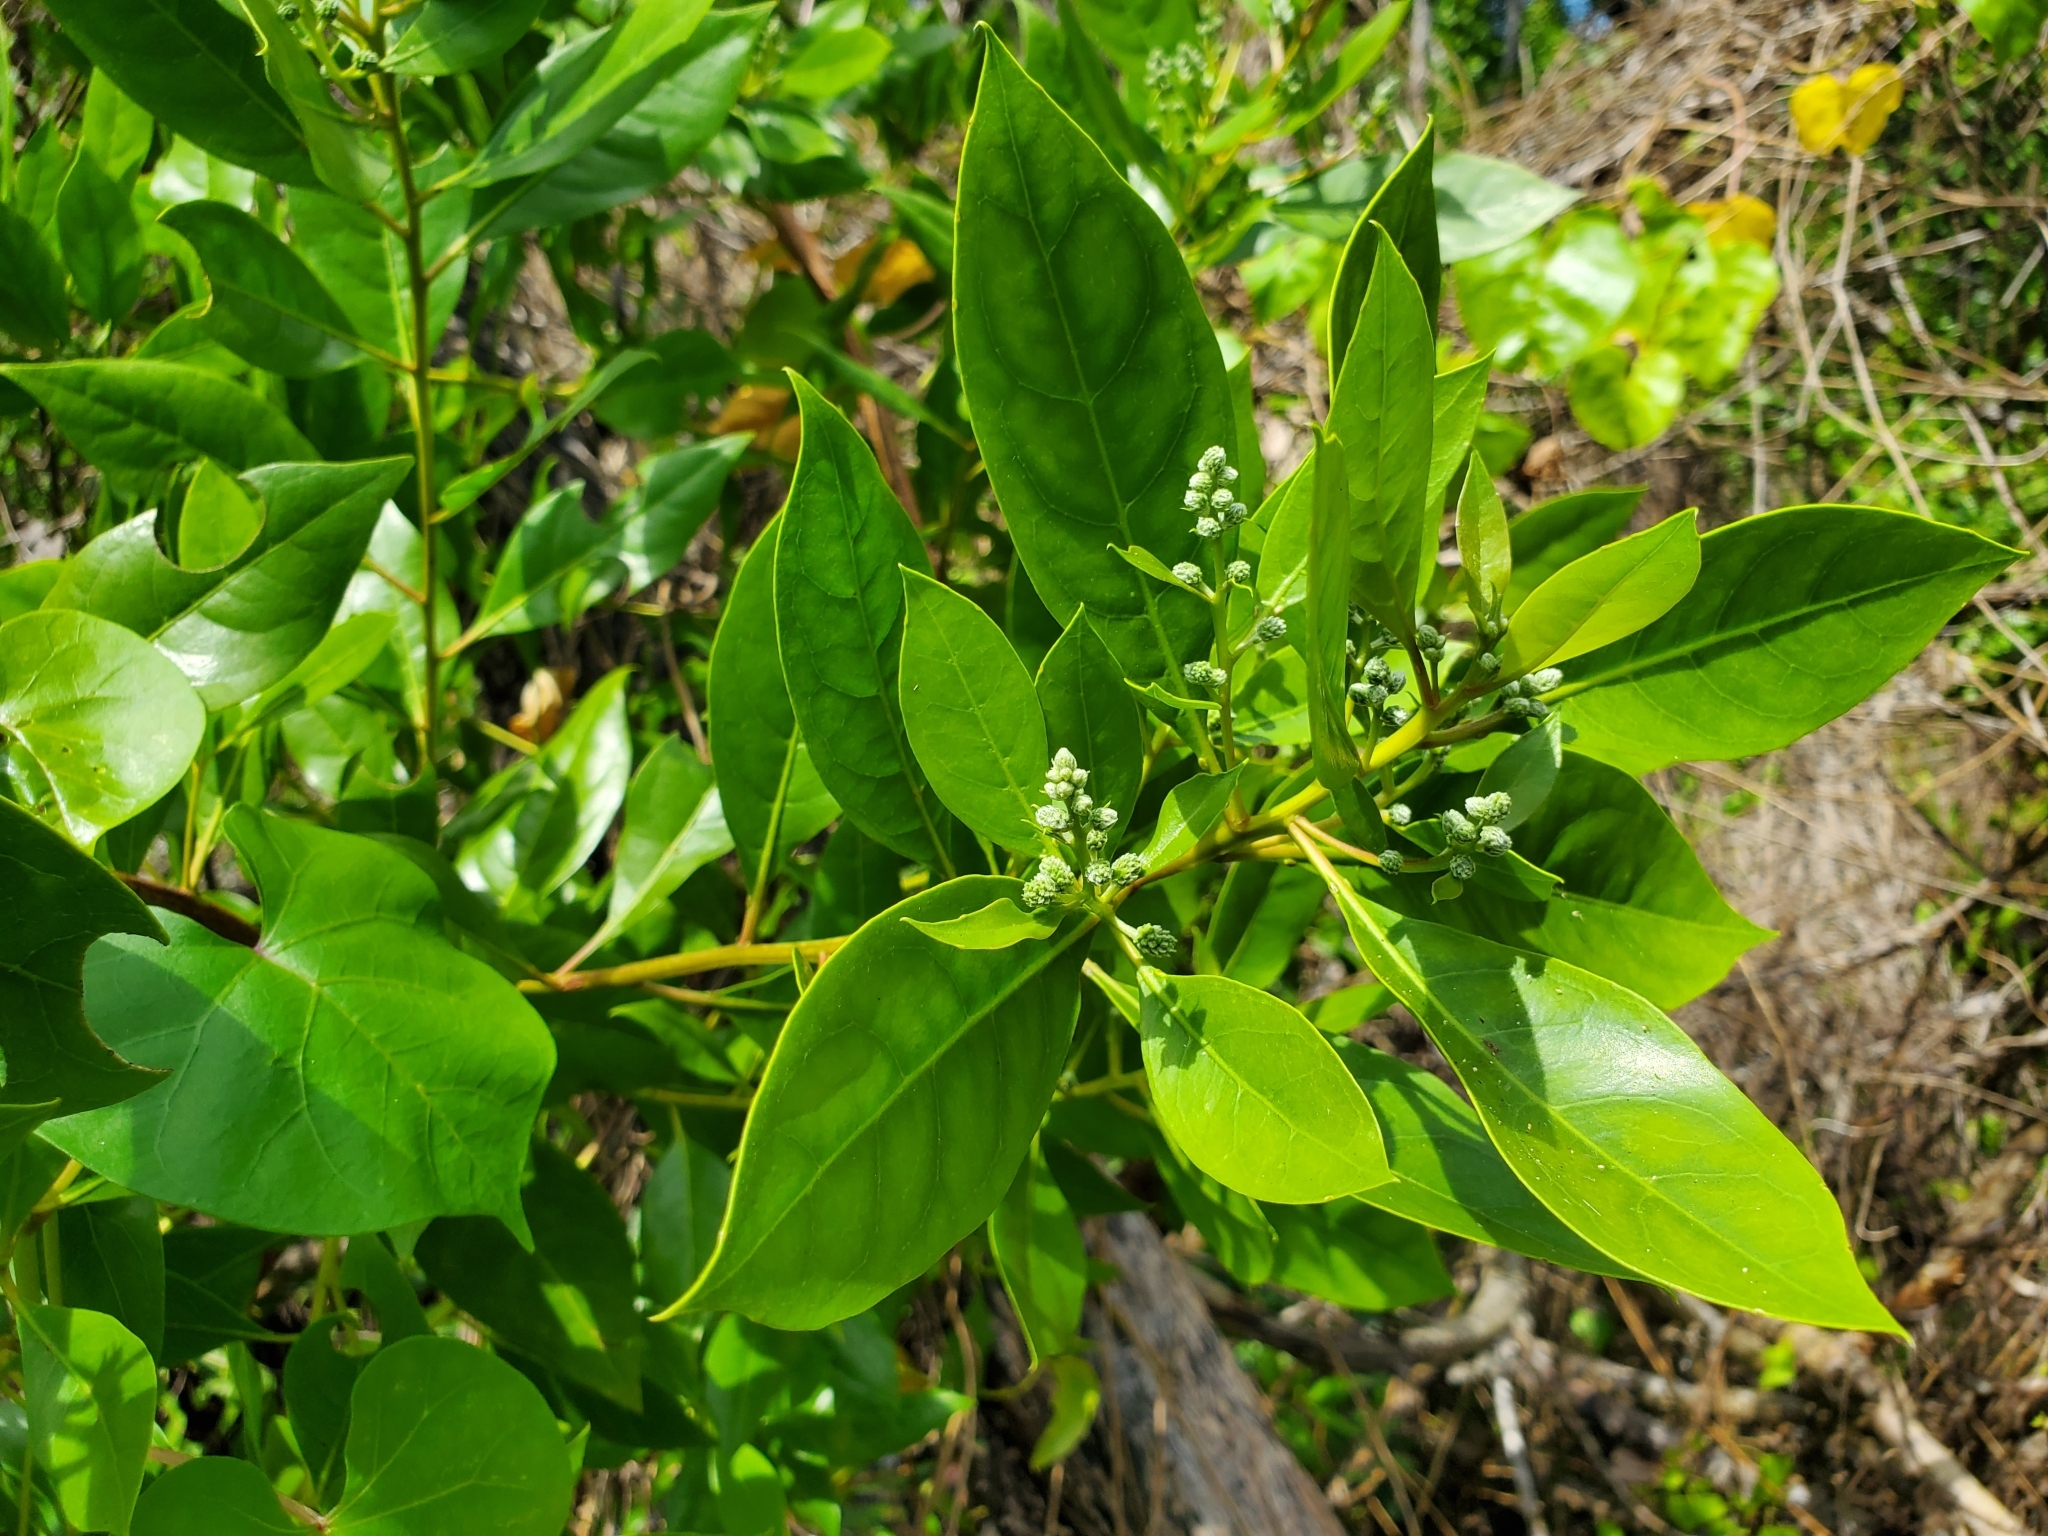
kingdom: Plantae
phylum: Tracheophyta
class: Magnoliopsida
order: Myrtales
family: Combretaceae
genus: Conocarpus
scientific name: Conocarpus erectus
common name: Button mangrove
